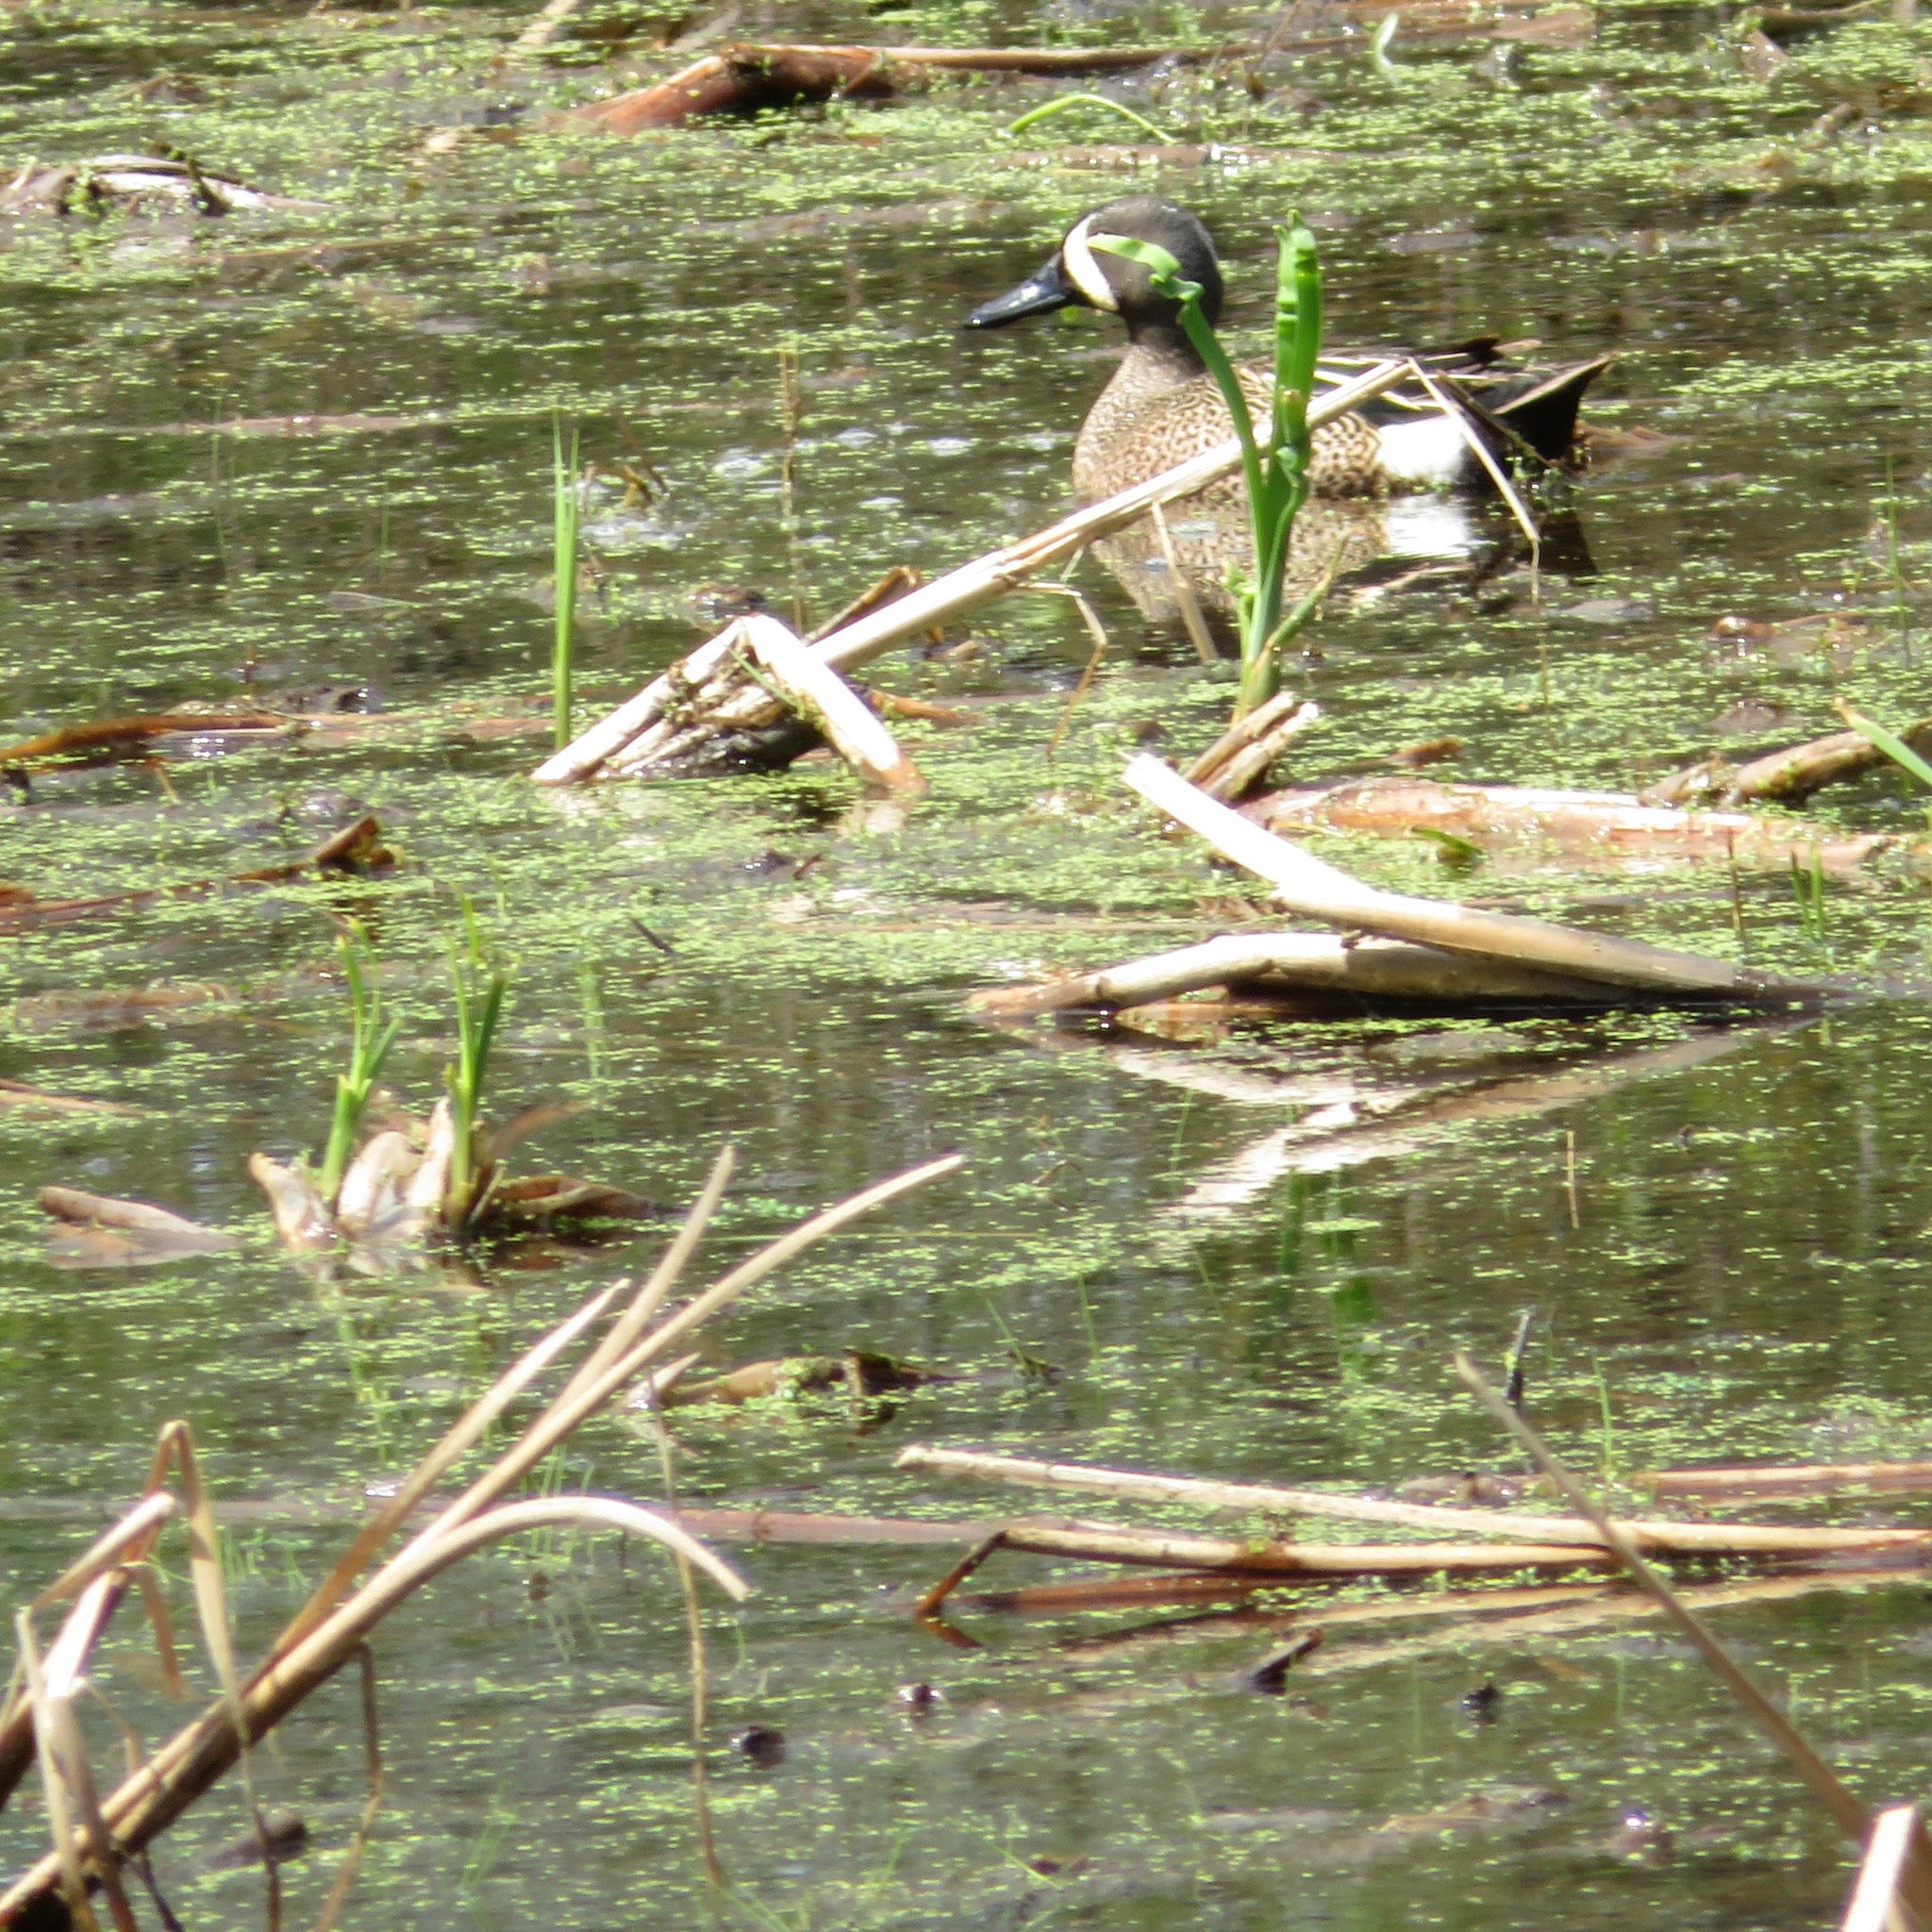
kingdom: Animalia
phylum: Chordata
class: Aves
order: Anseriformes
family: Anatidae
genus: Spatula
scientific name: Spatula discors
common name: Blue-winged teal
